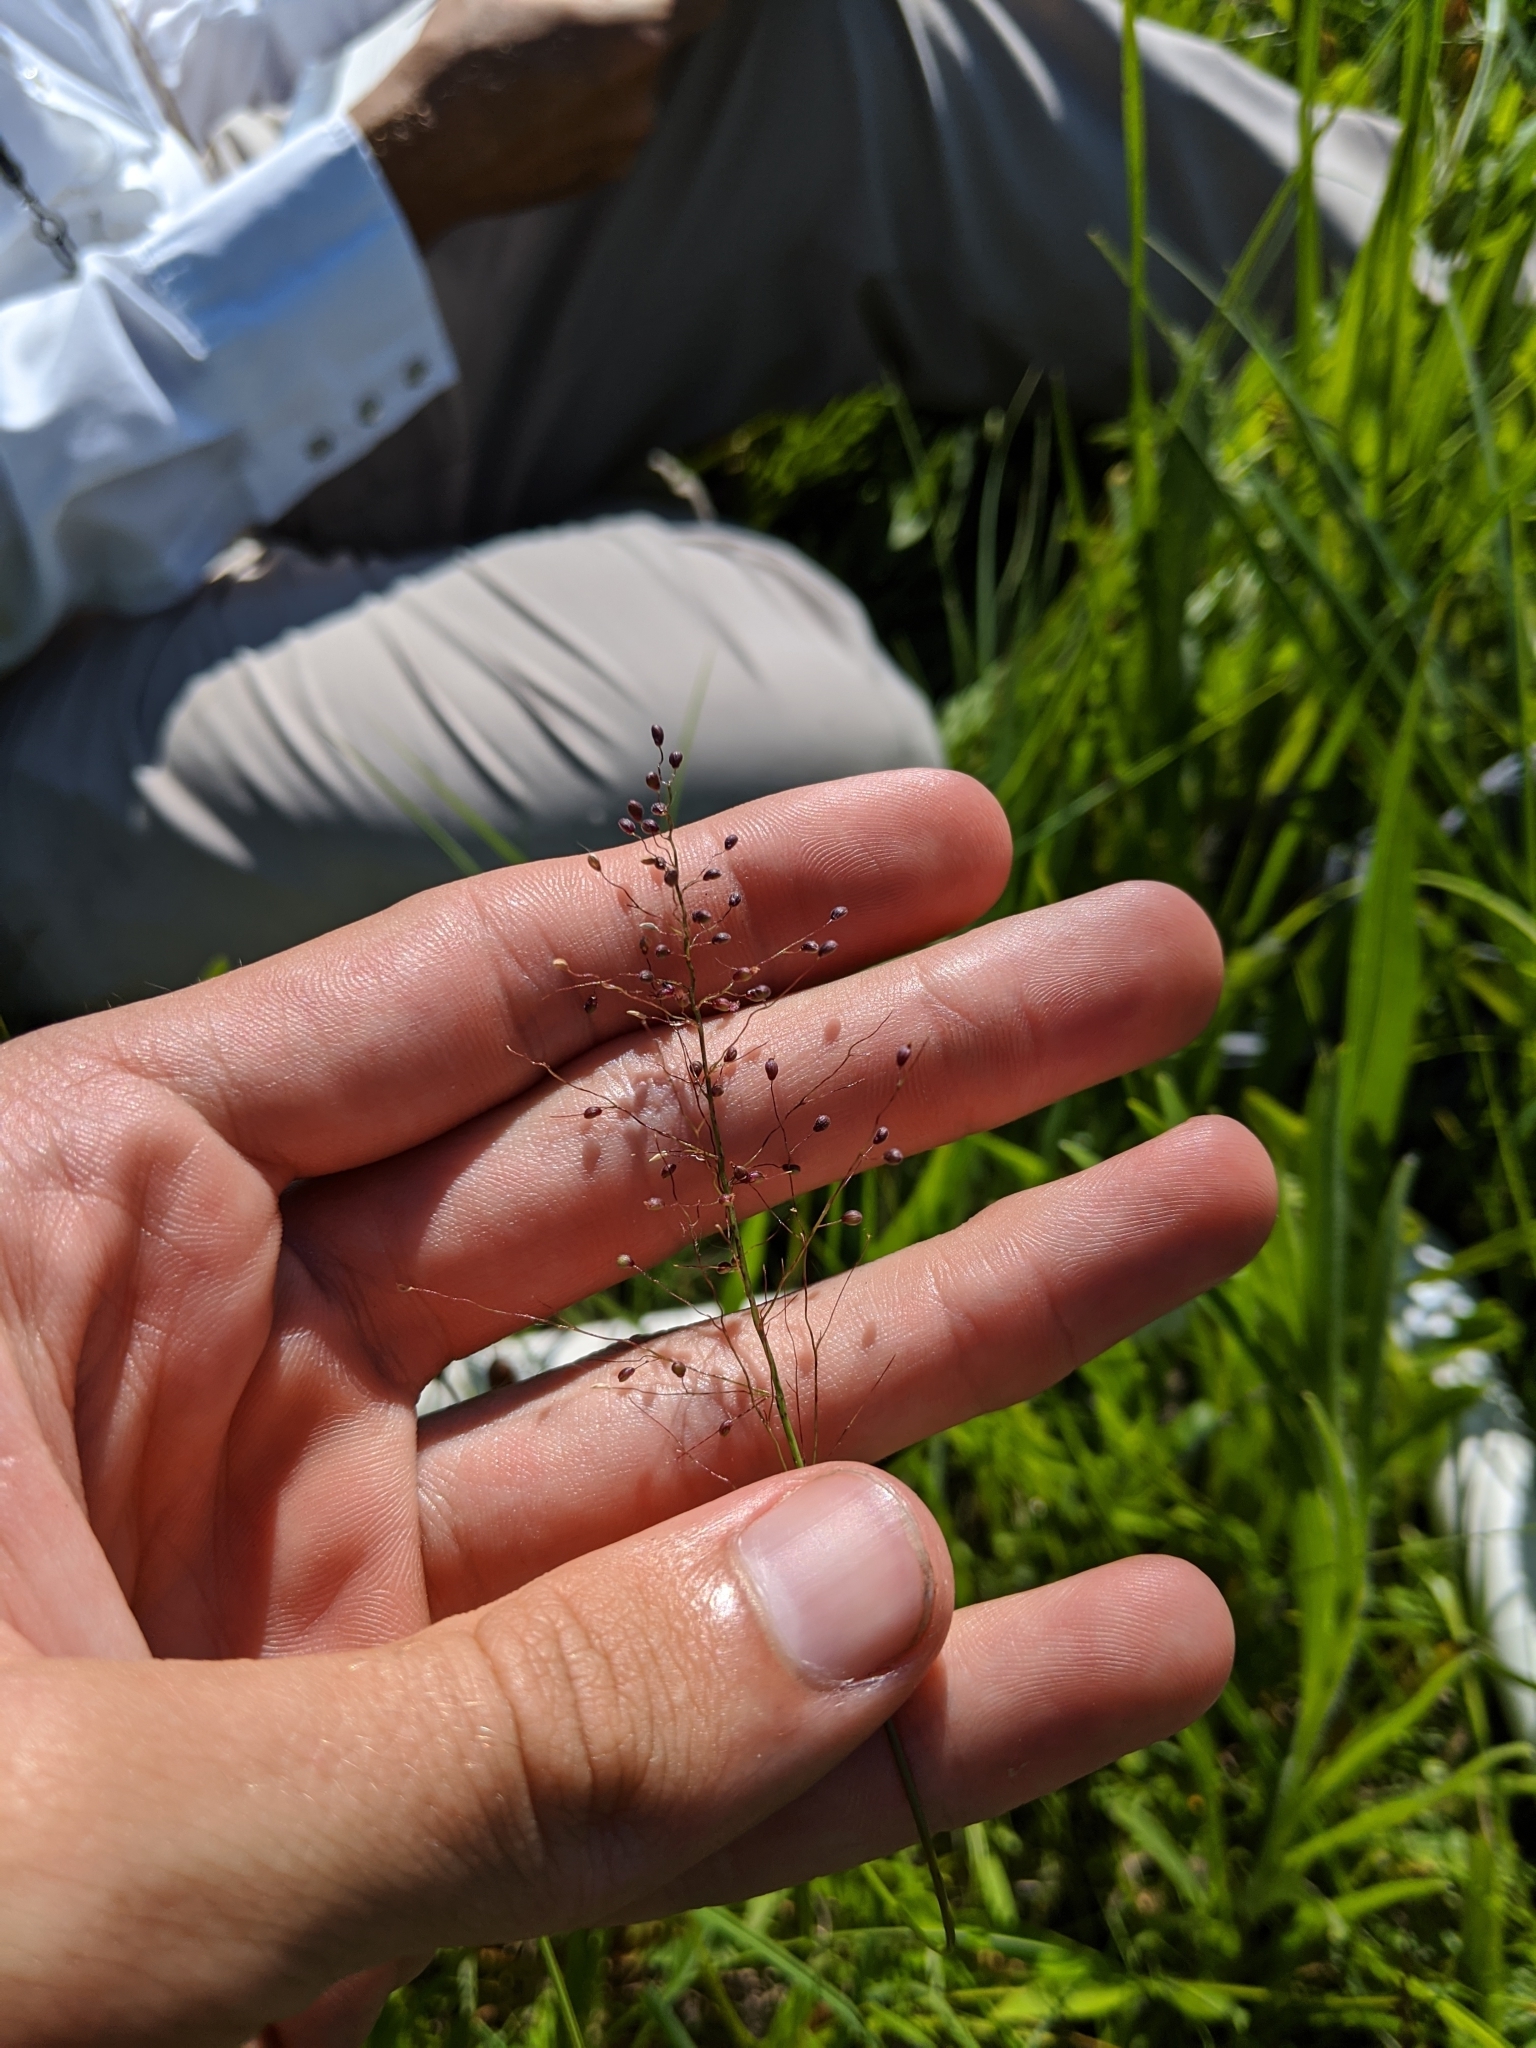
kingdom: Plantae
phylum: Tracheophyta
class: Liliopsida
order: Poales
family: Poaceae
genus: Dichanthelium
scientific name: Dichanthelium sphaerocarpon
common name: Round-fruited panicgrass
